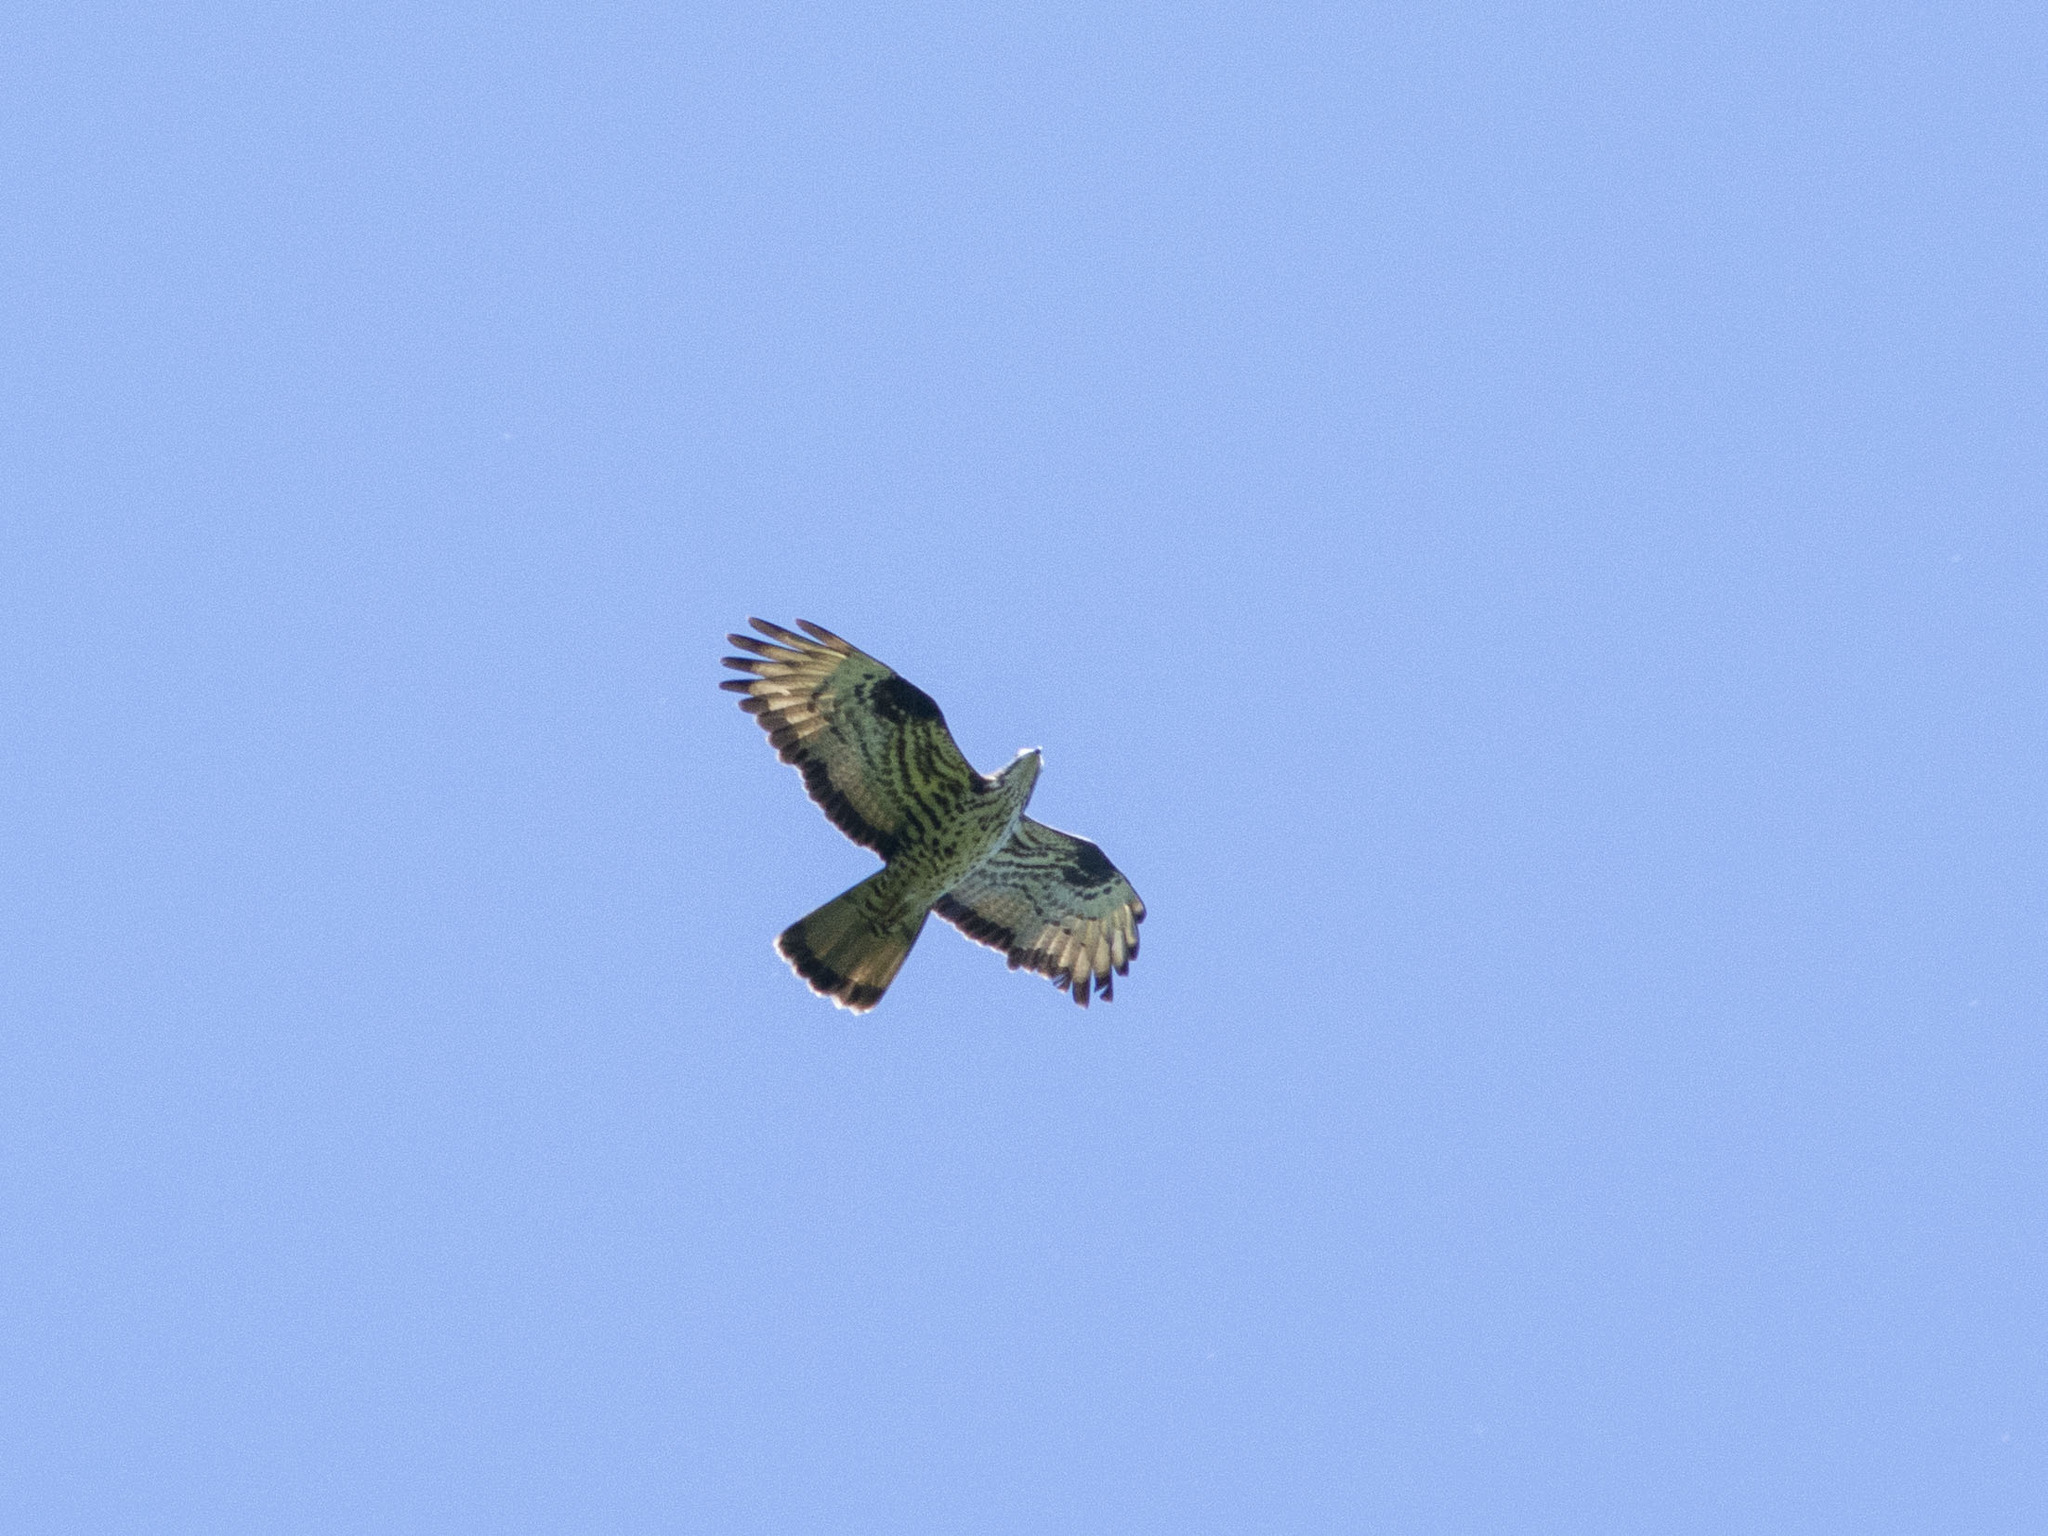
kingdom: Animalia
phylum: Chordata
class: Aves
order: Accipitriformes
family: Accipitridae
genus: Pernis
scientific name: Pernis apivorus
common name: European honey buzzard
